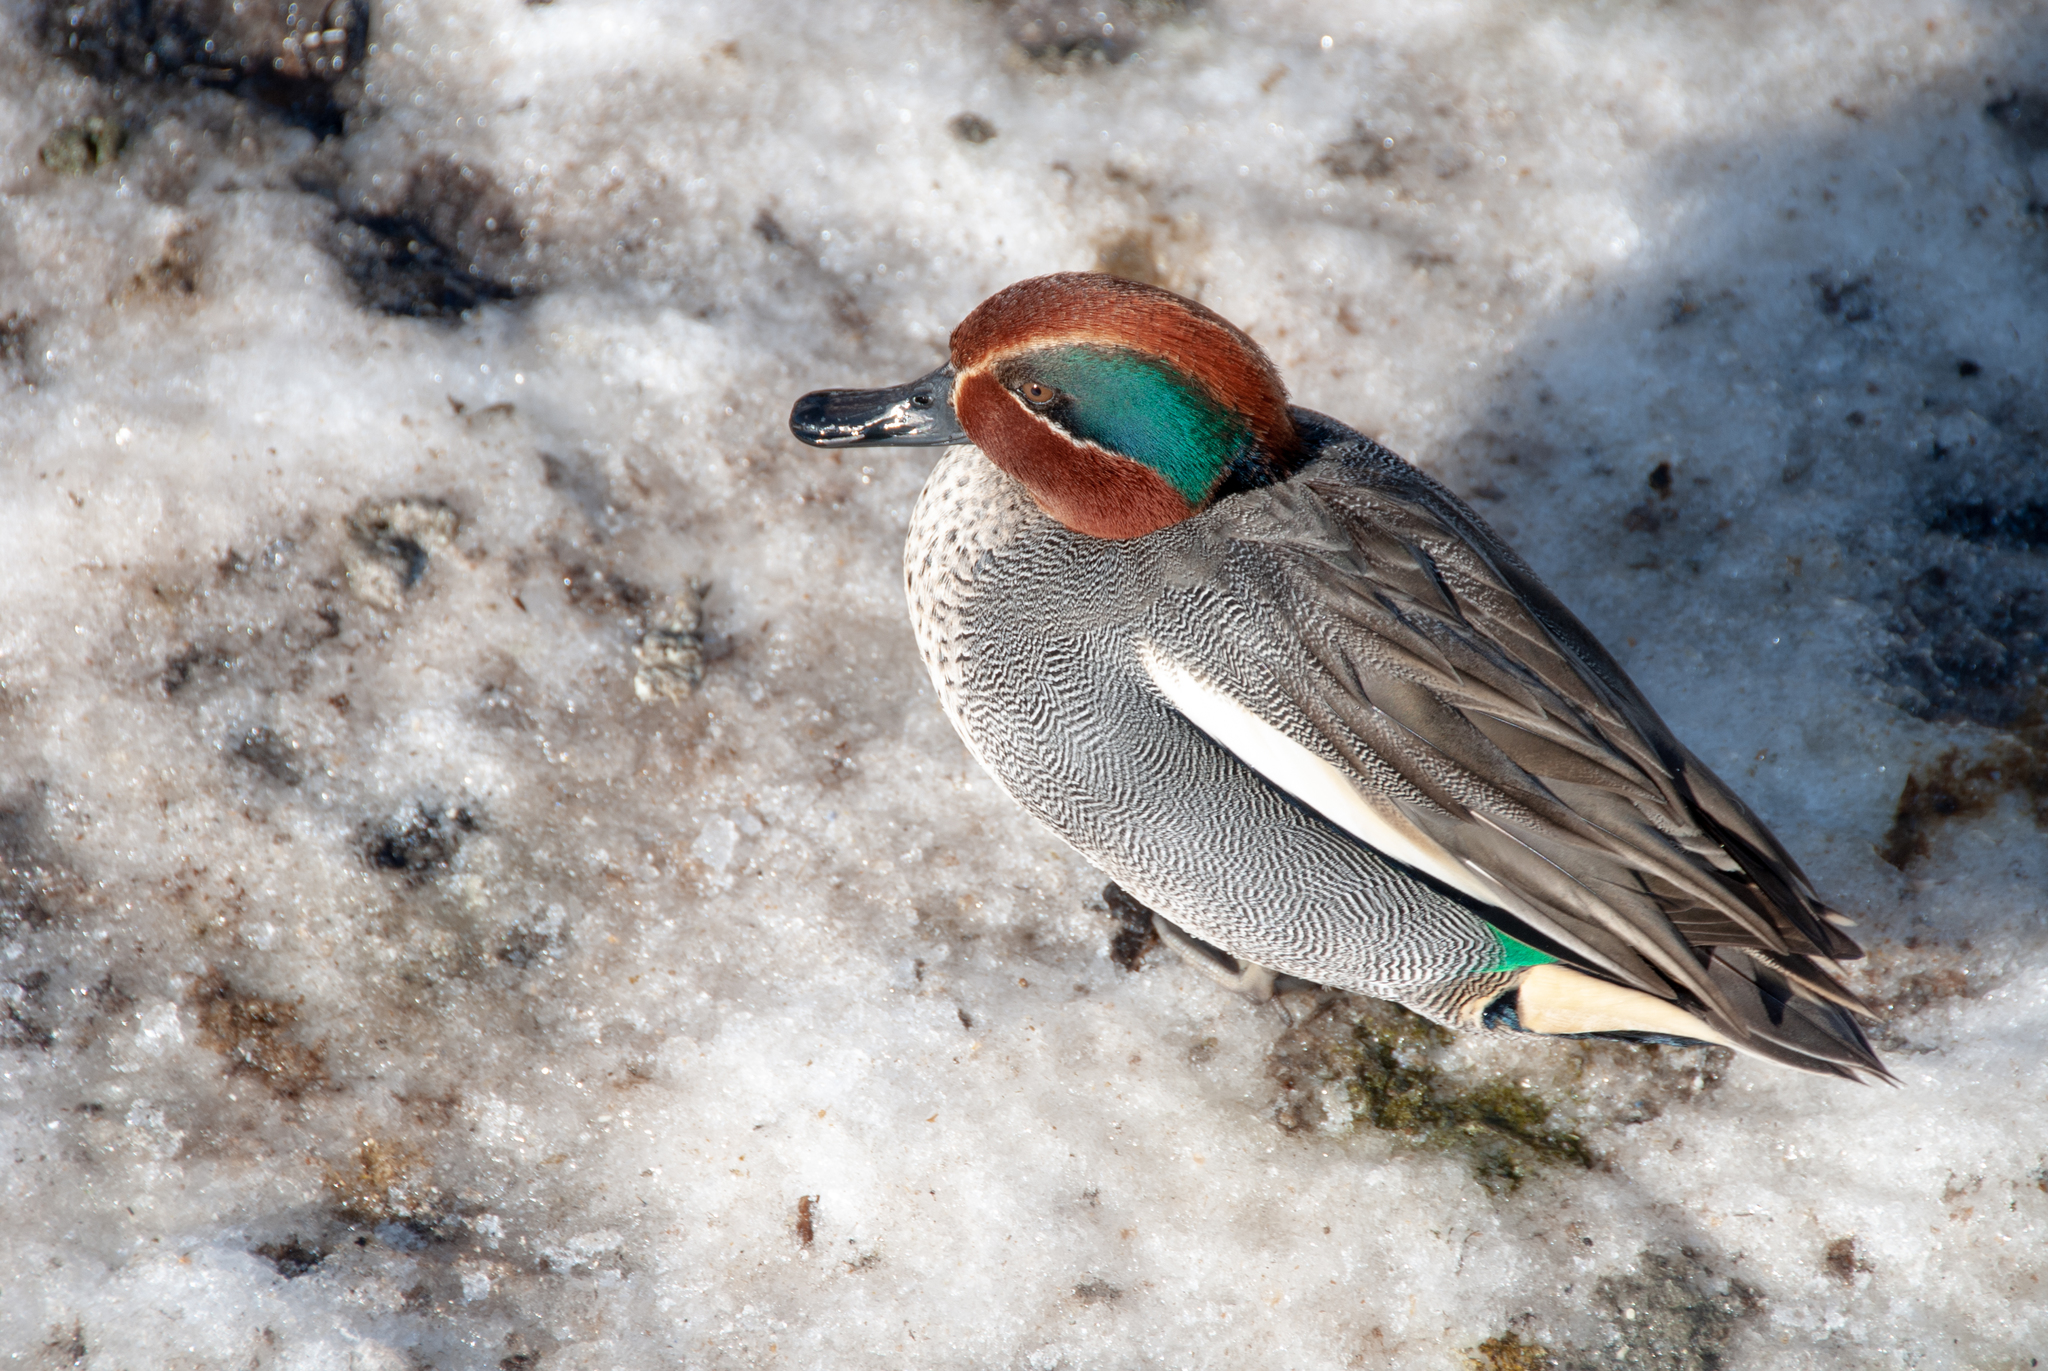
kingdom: Animalia
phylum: Chordata
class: Aves
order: Anseriformes
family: Anatidae
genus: Anas
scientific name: Anas crecca
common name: Eurasian teal
